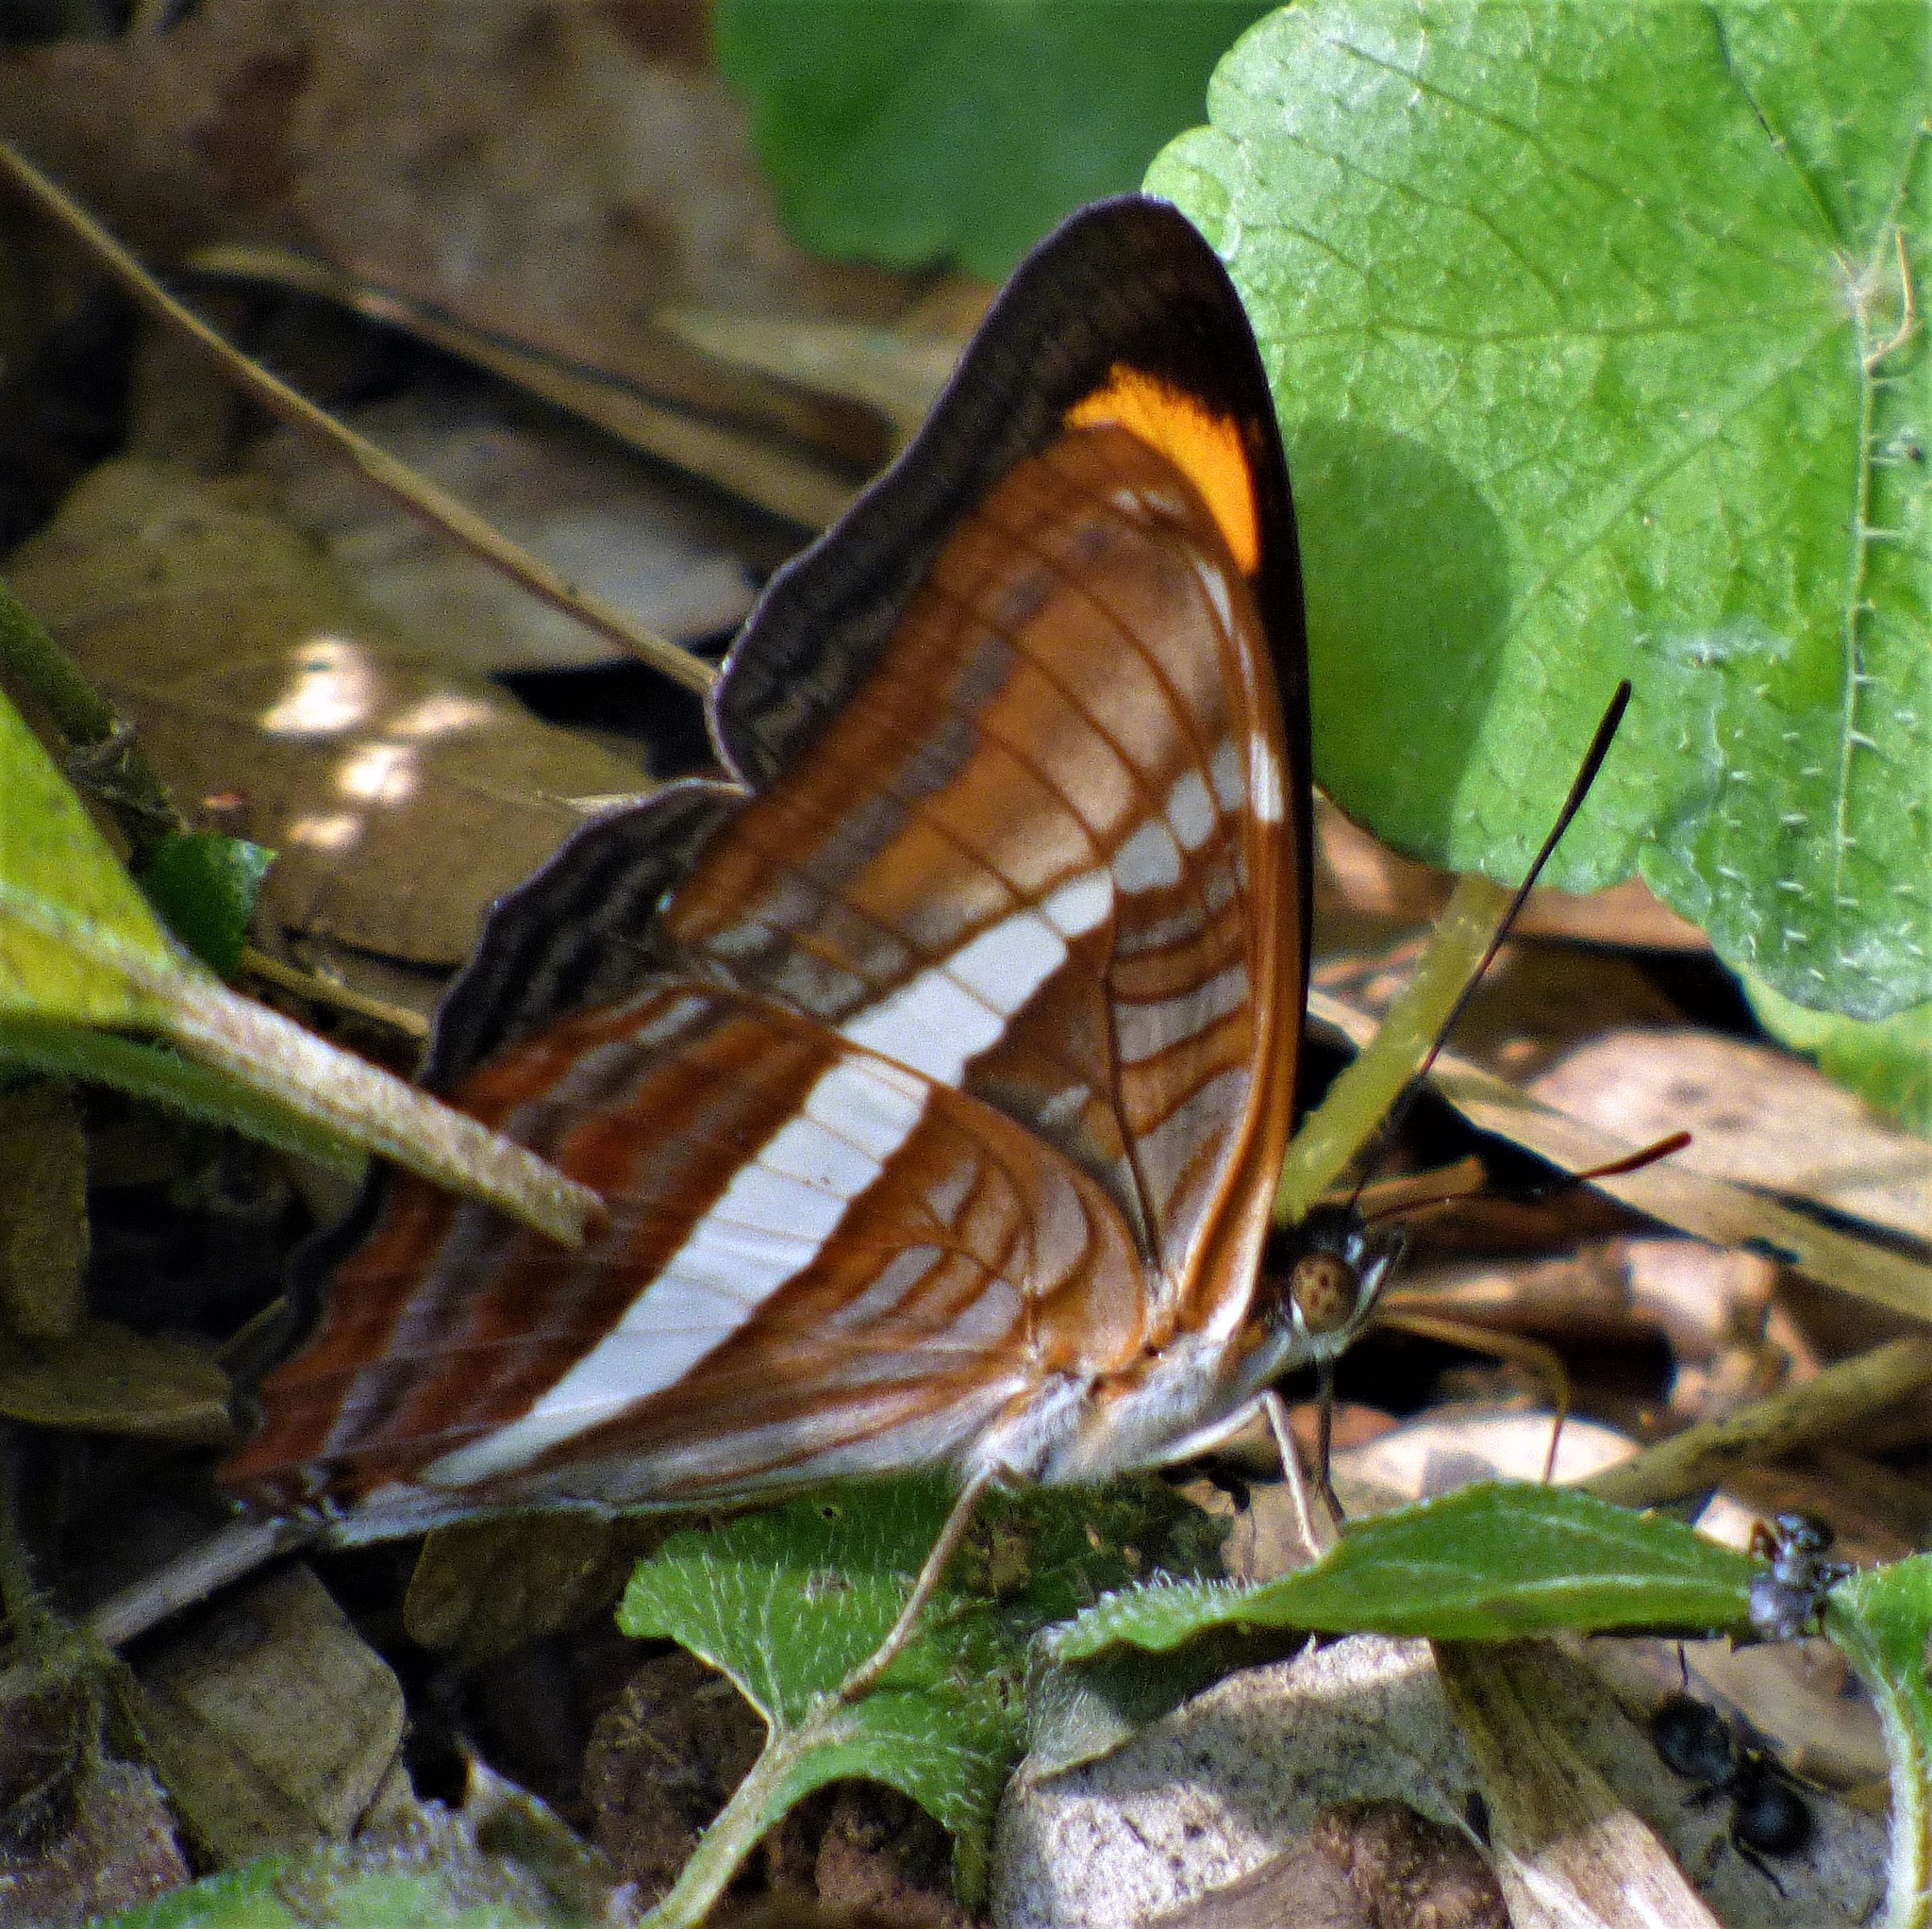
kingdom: Animalia
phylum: Arthropoda
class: Insecta
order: Lepidoptera
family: Nymphalidae
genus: Limenitis
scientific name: Limenitis calliphane
